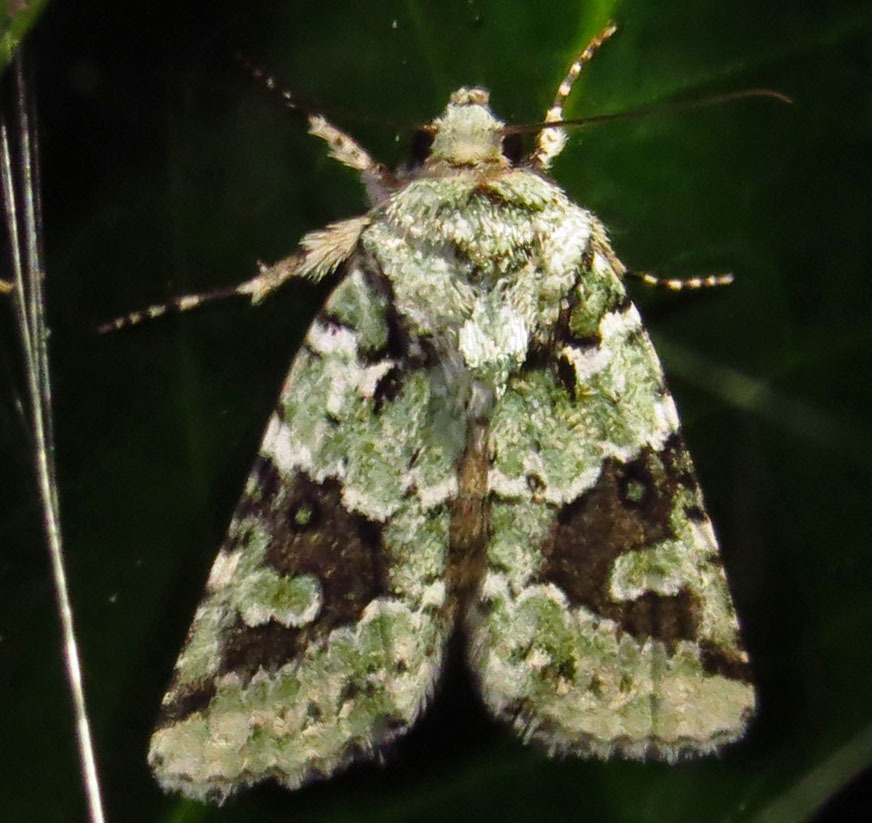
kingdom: Animalia
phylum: Arthropoda
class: Insecta
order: Lepidoptera
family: Noctuidae
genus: Lacinipolia
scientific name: Lacinipolia laudabilis
